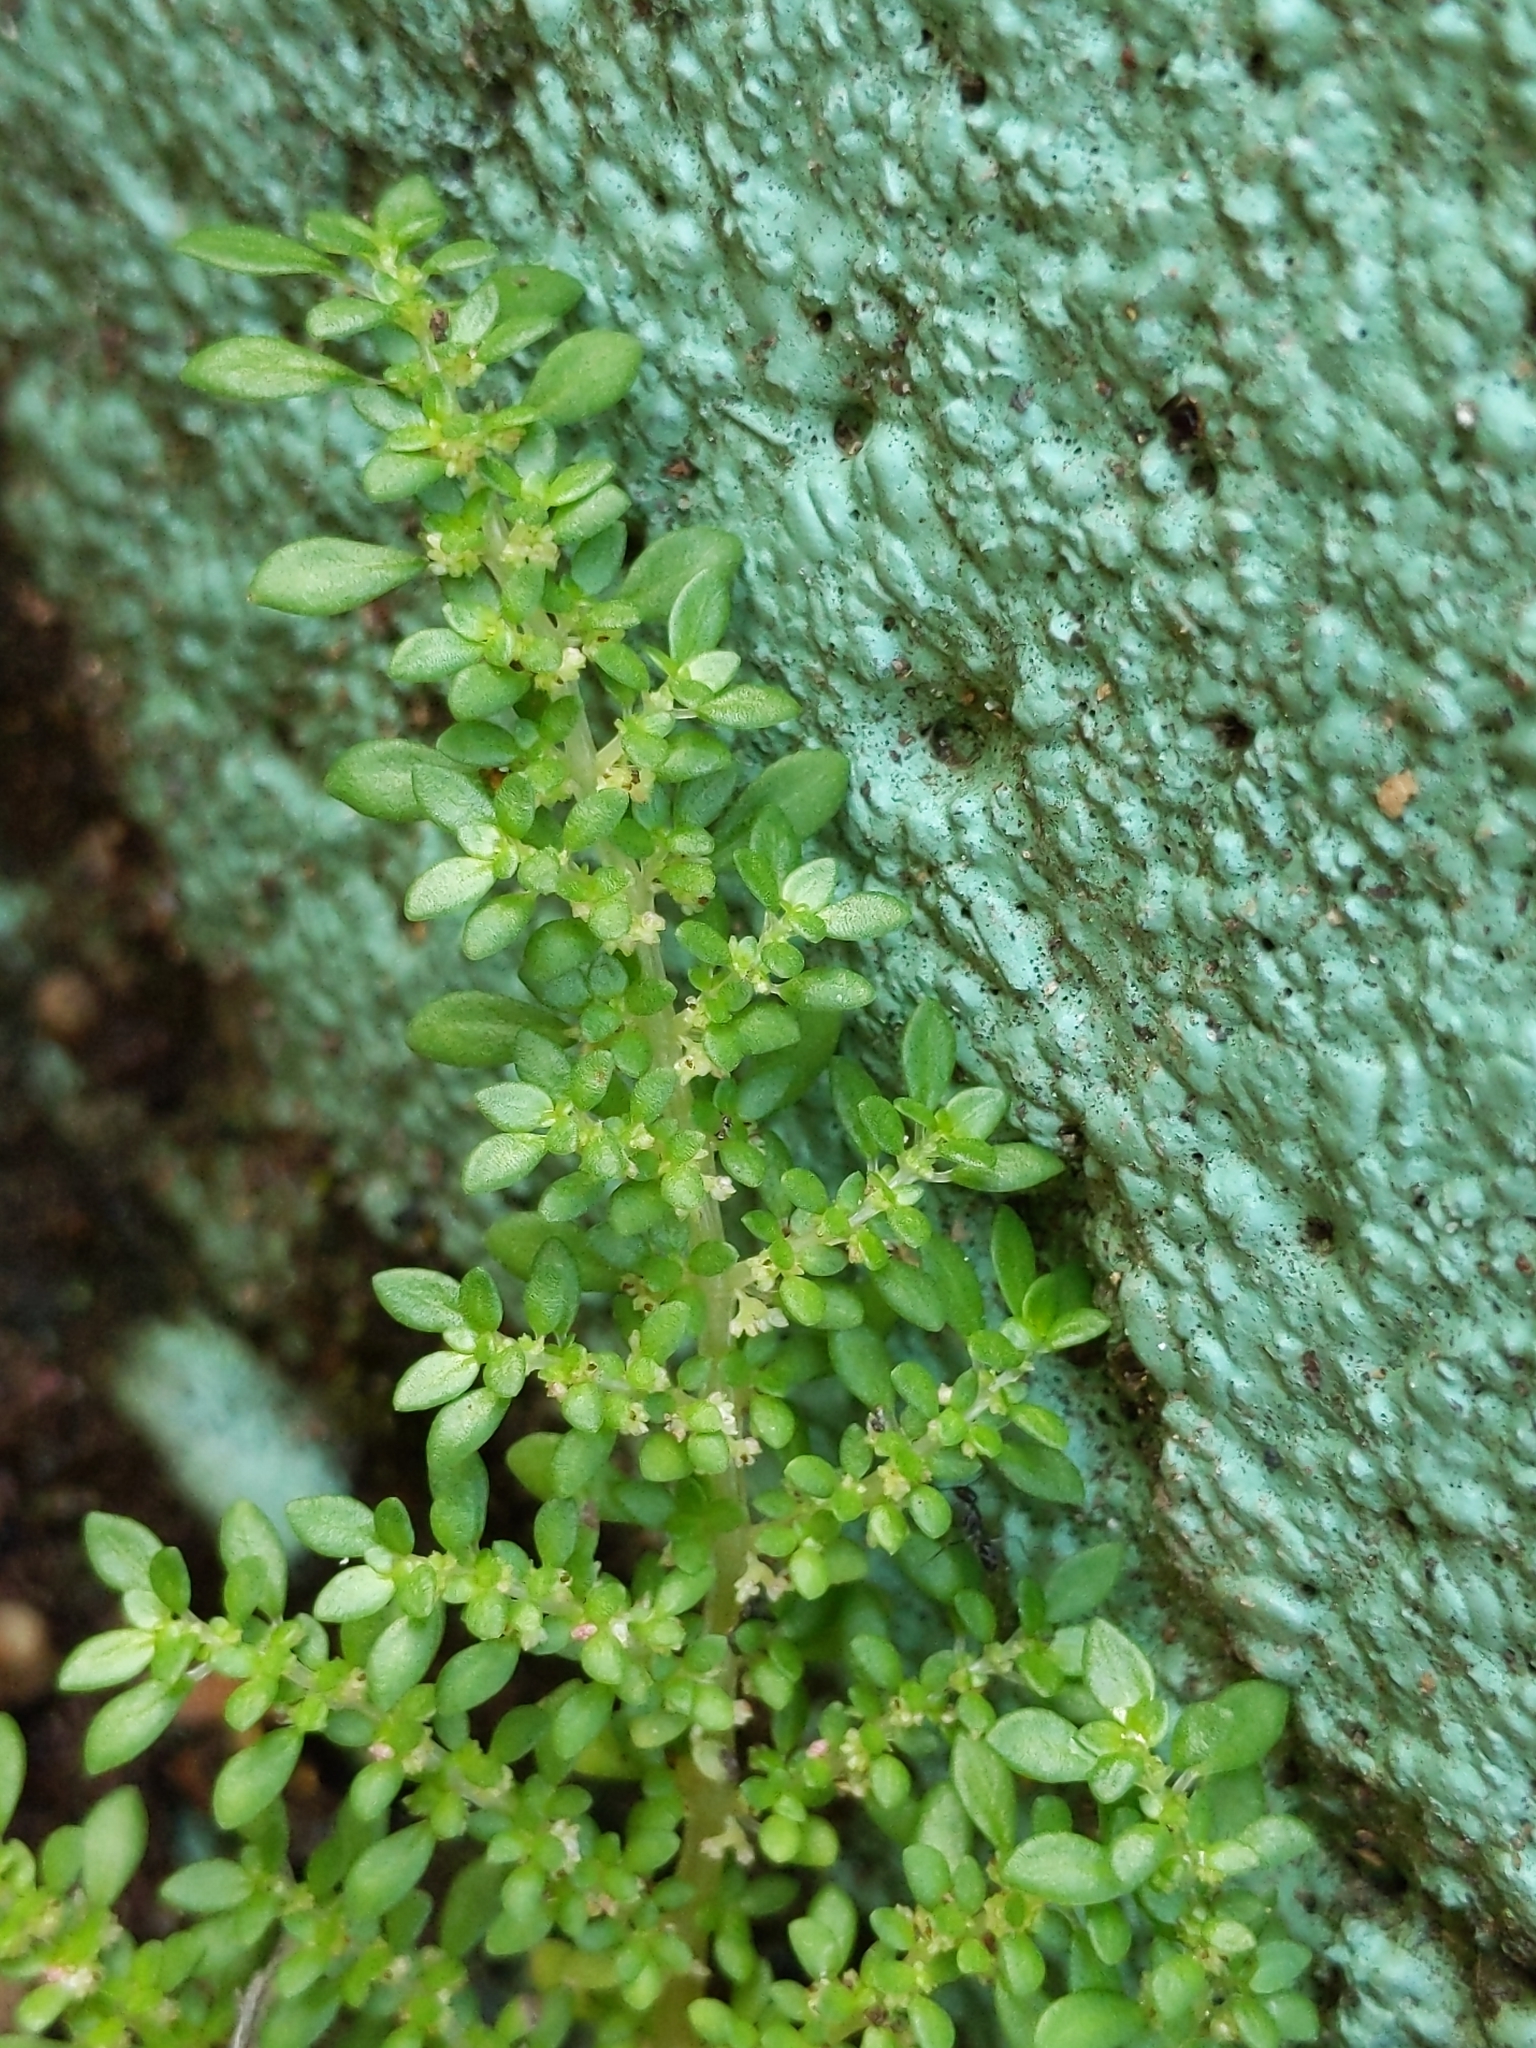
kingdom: Plantae
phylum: Tracheophyta
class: Magnoliopsida
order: Rosales
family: Urticaceae
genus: Pilea
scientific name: Pilea microphylla
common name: Artillery-plant
